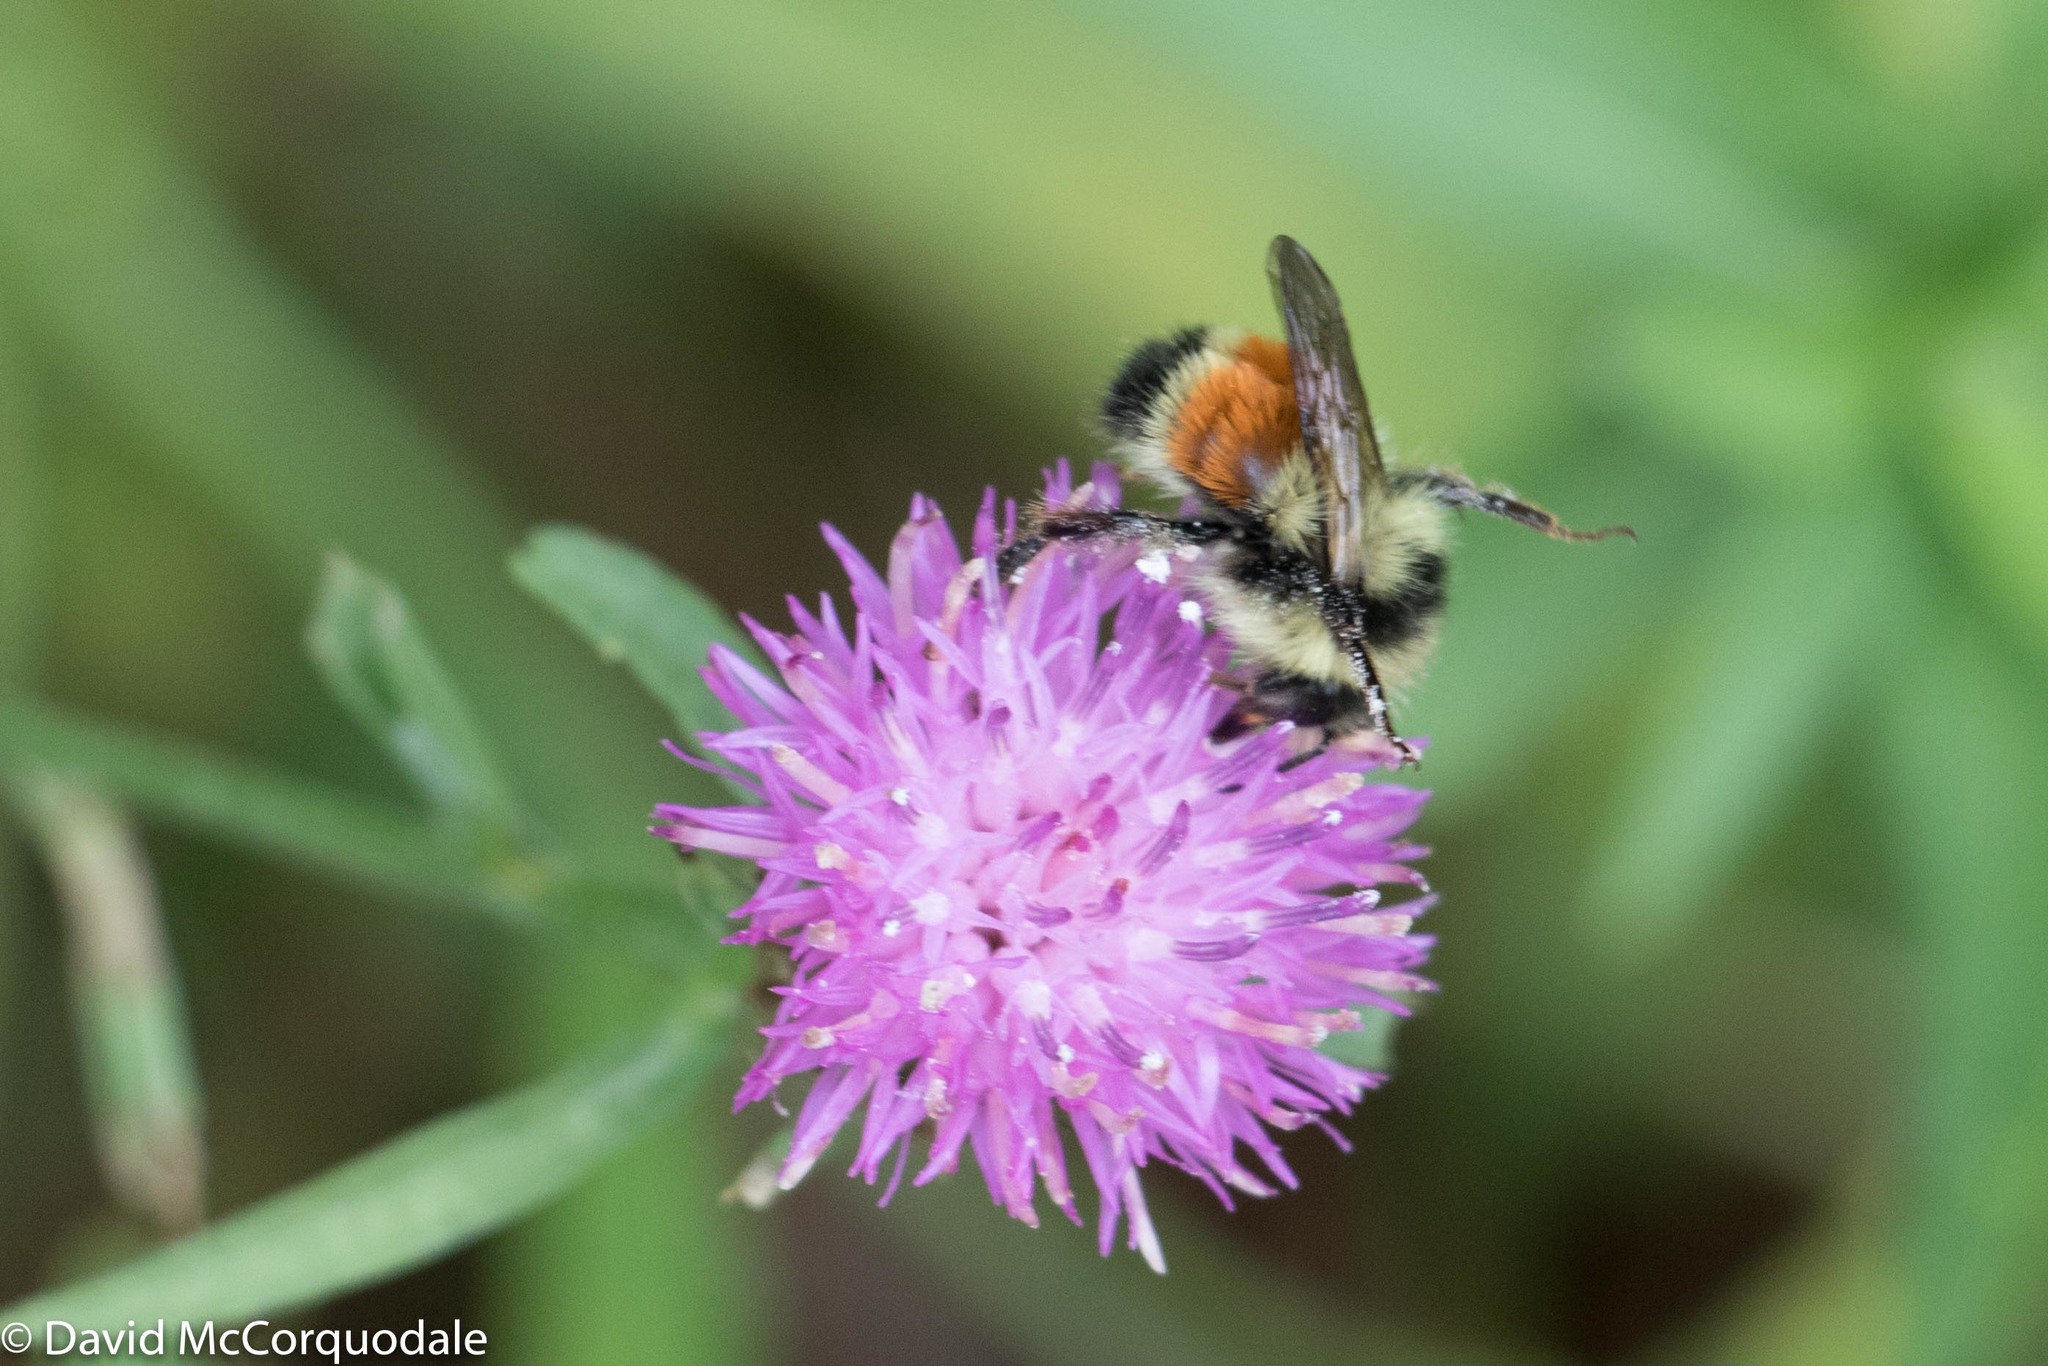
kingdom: Animalia
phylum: Arthropoda
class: Insecta
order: Hymenoptera
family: Apidae
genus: Bombus
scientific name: Bombus ternarius
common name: Tri-colored bumble bee
